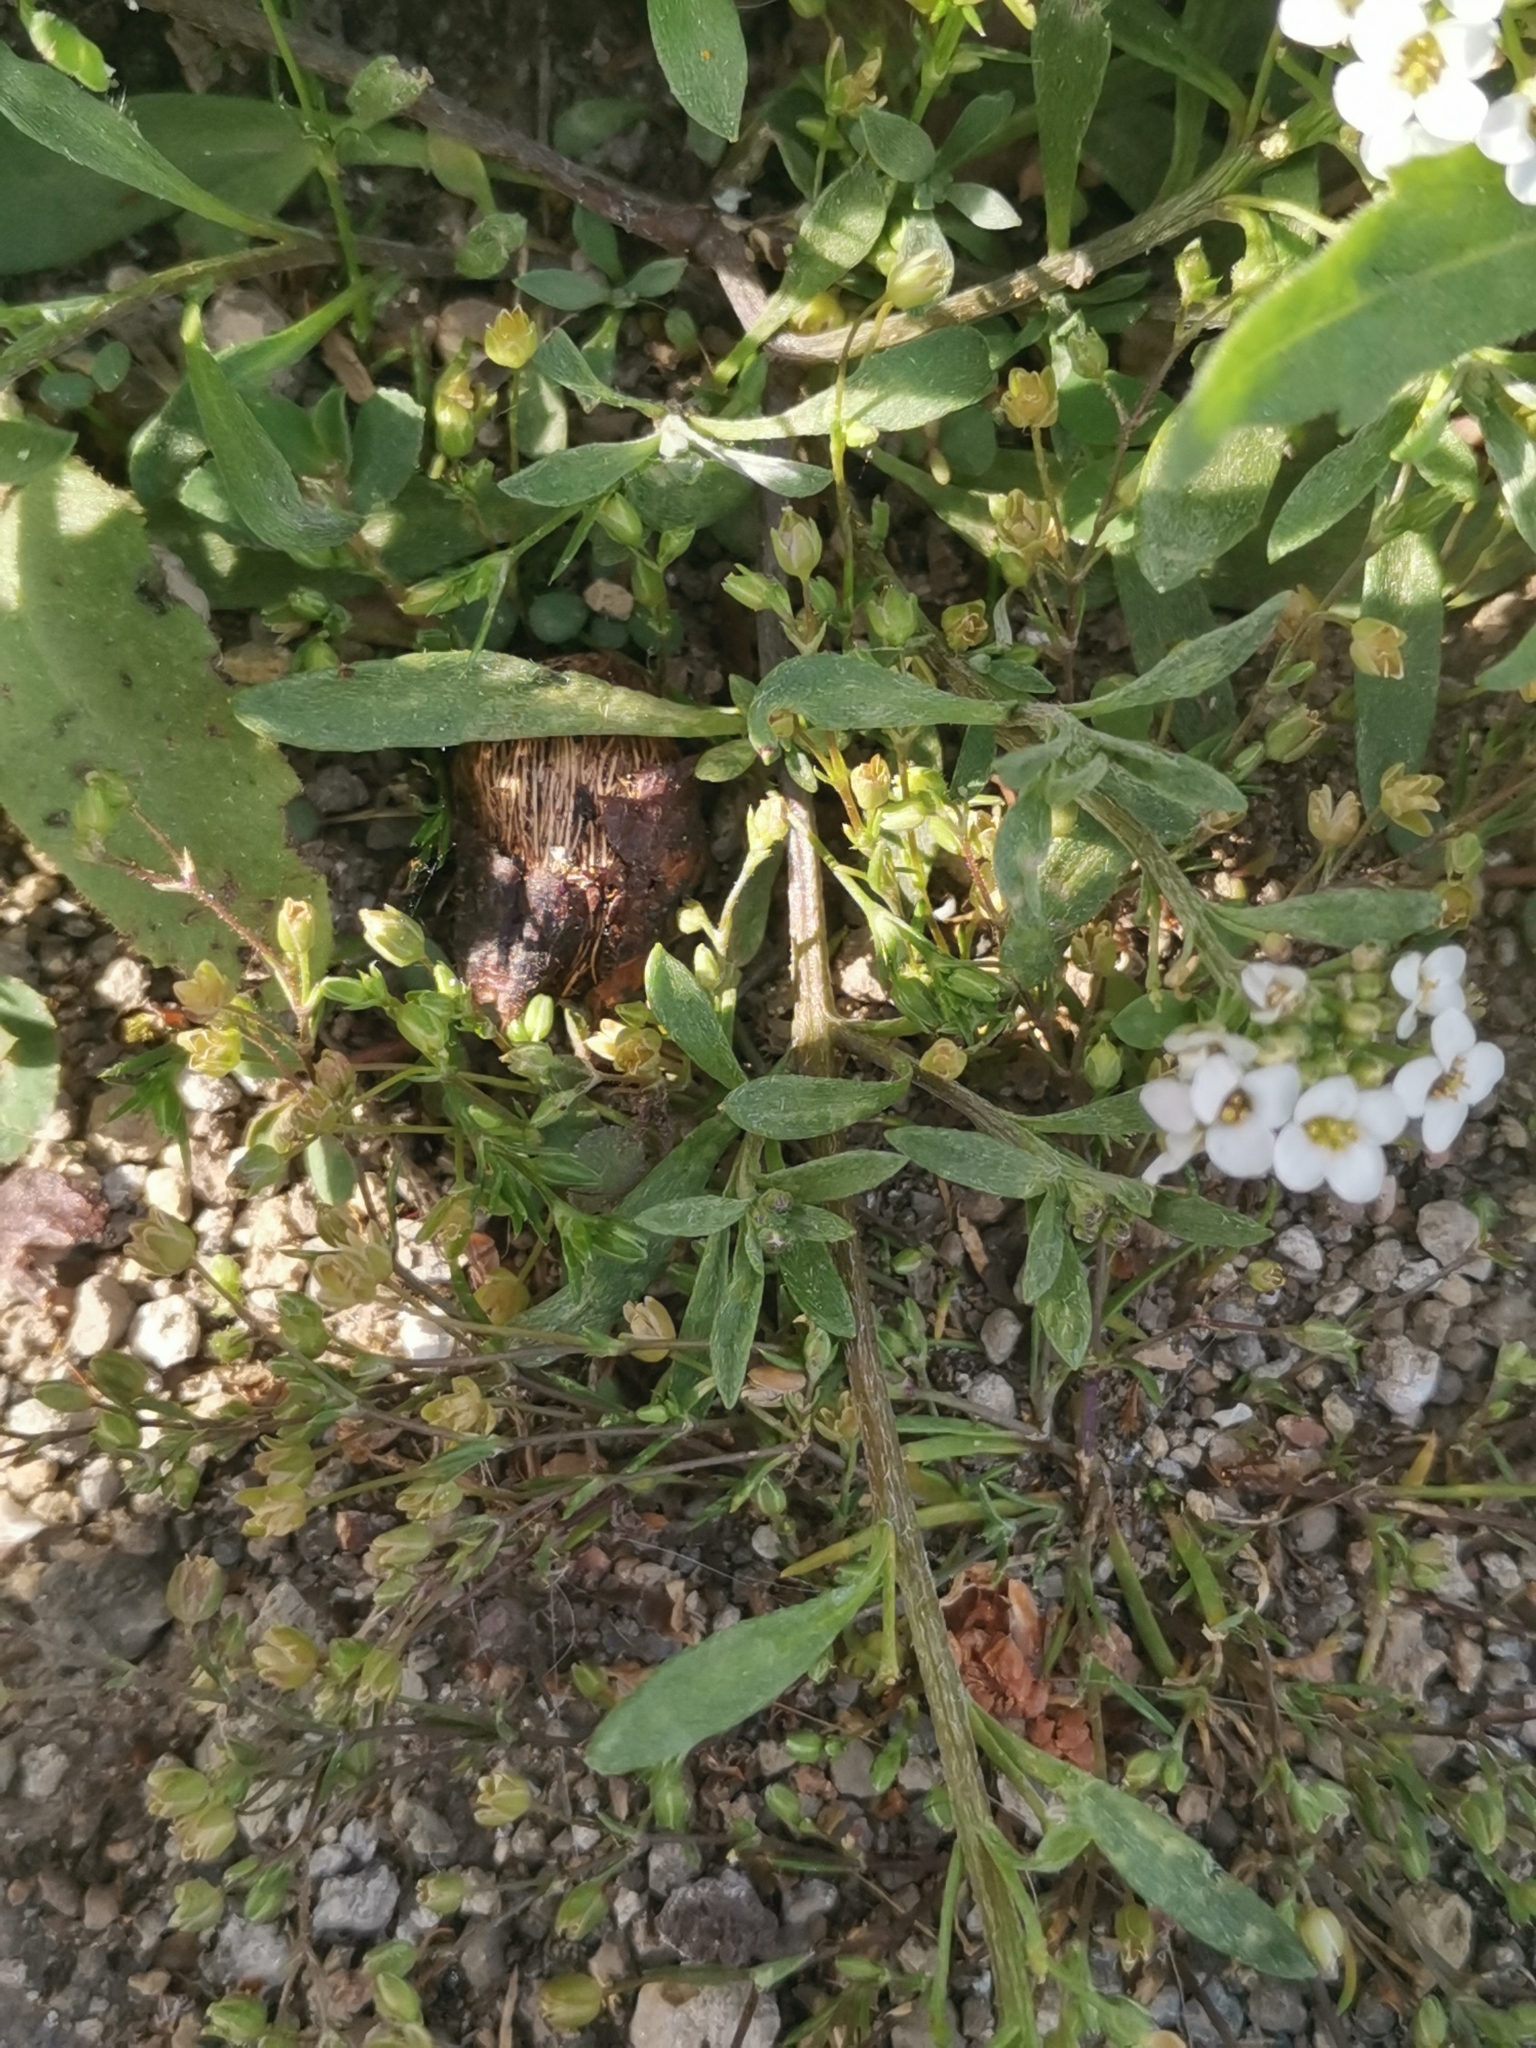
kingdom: Plantae
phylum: Tracheophyta
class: Magnoliopsida
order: Brassicales
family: Brassicaceae
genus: Lobularia
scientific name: Lobularia maritima
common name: Sweet alison
